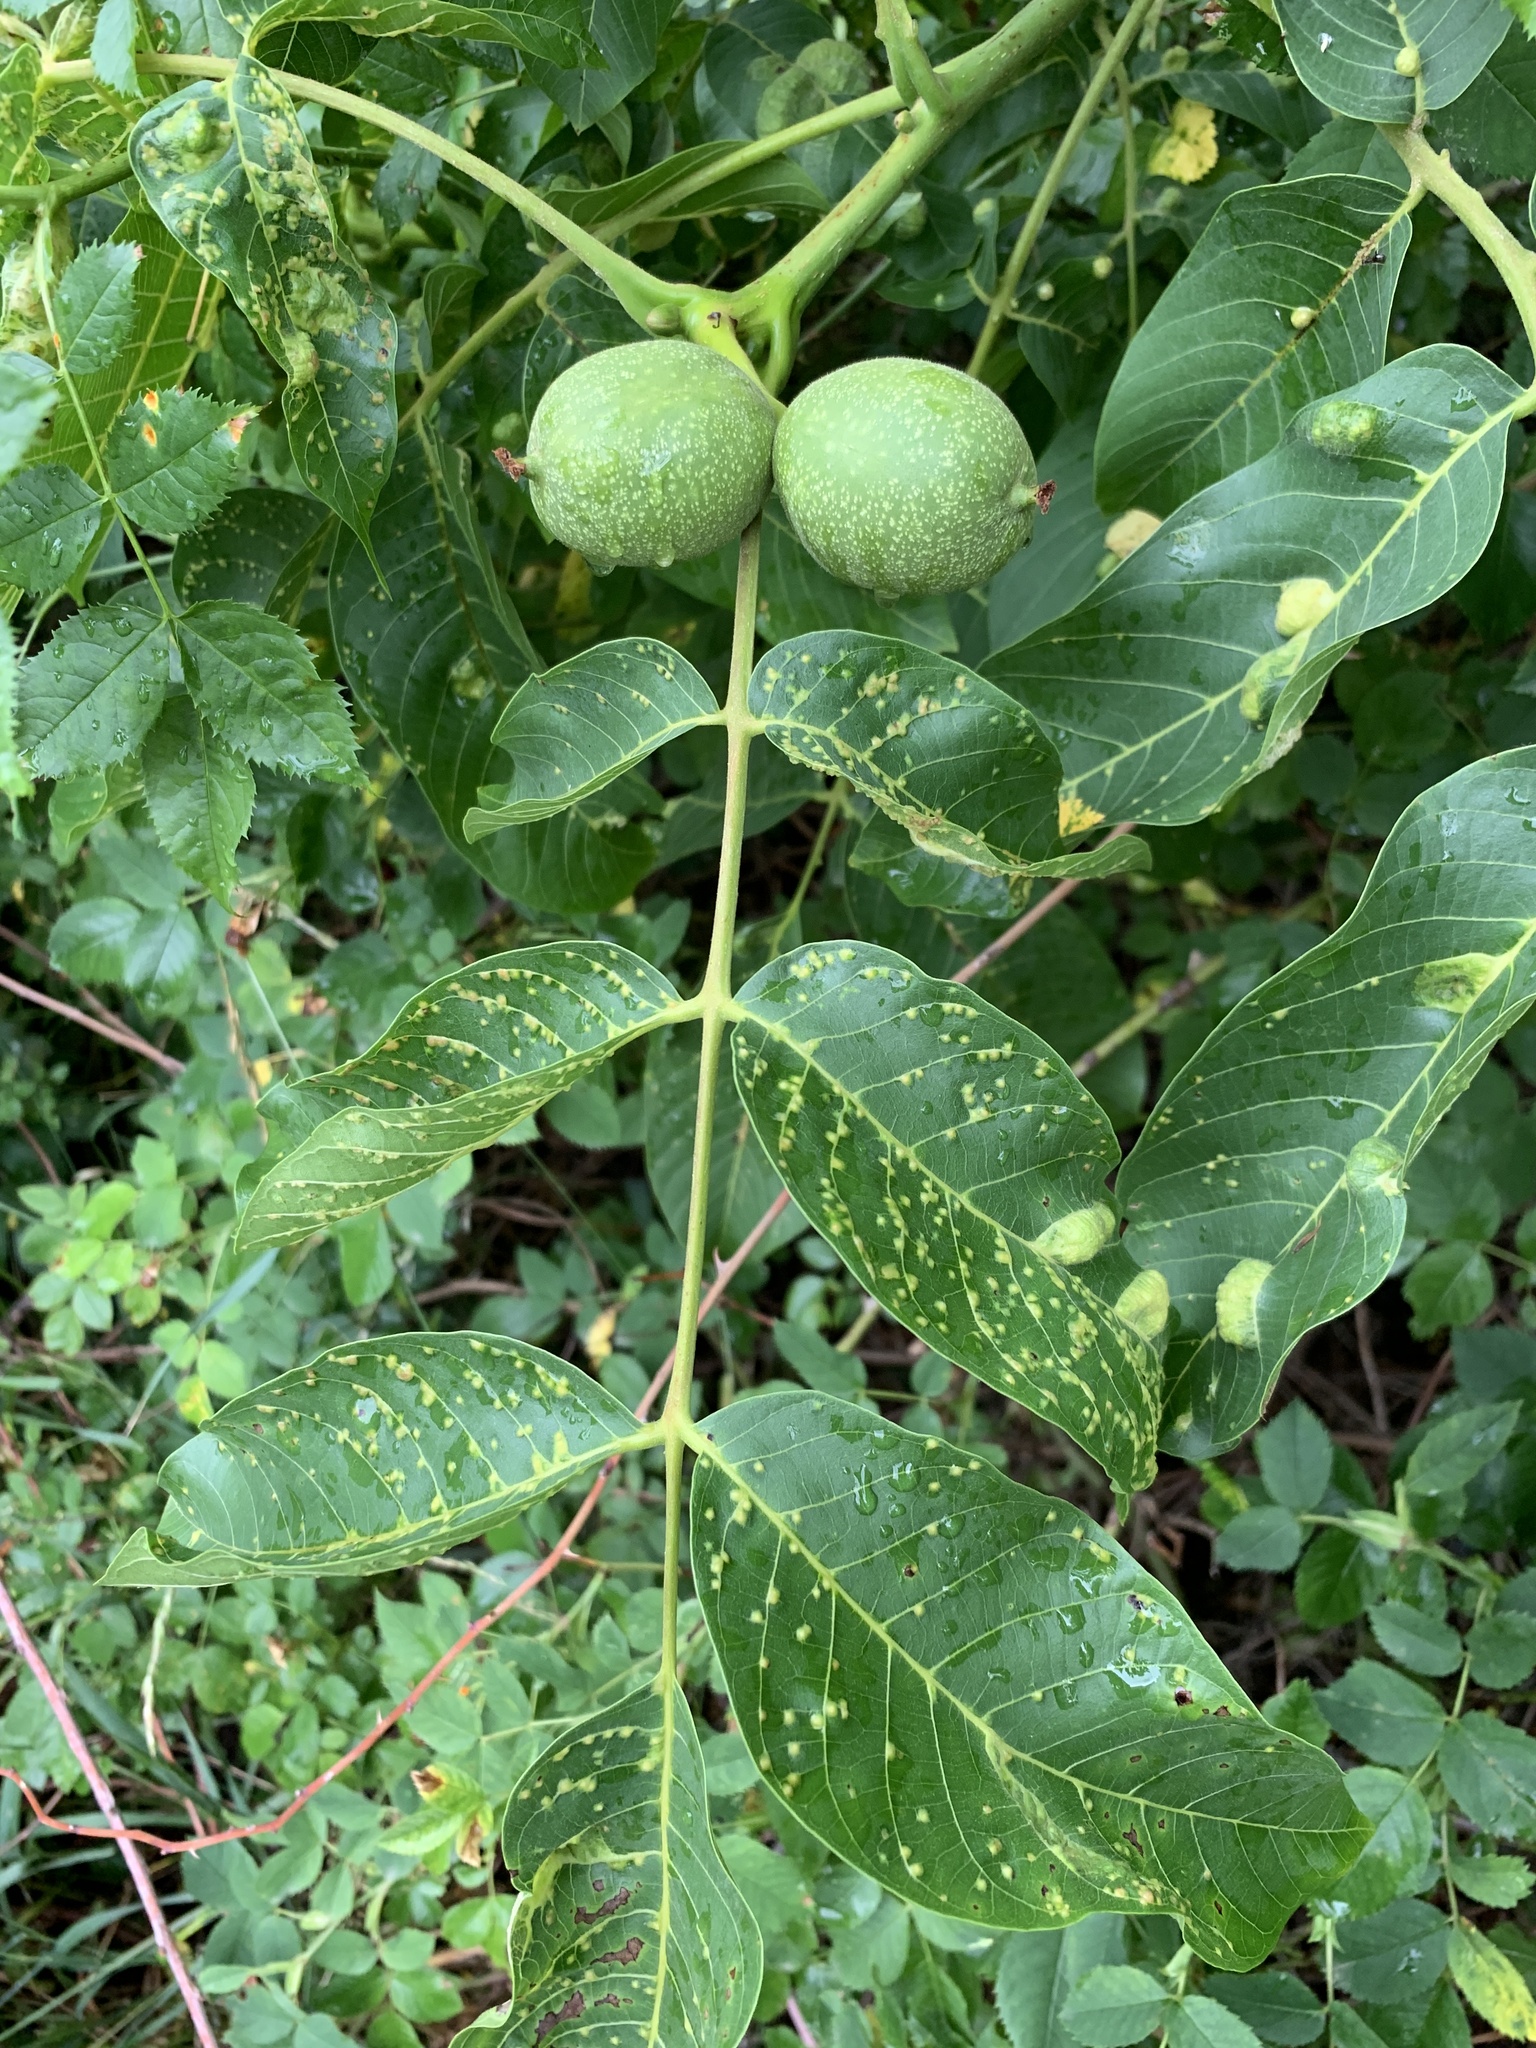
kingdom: Plantae
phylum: Tracheophyta
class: Magnoliopsida
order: Fagales
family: Juglandaceae
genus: Juglans
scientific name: Juglans regia
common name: Walnut
